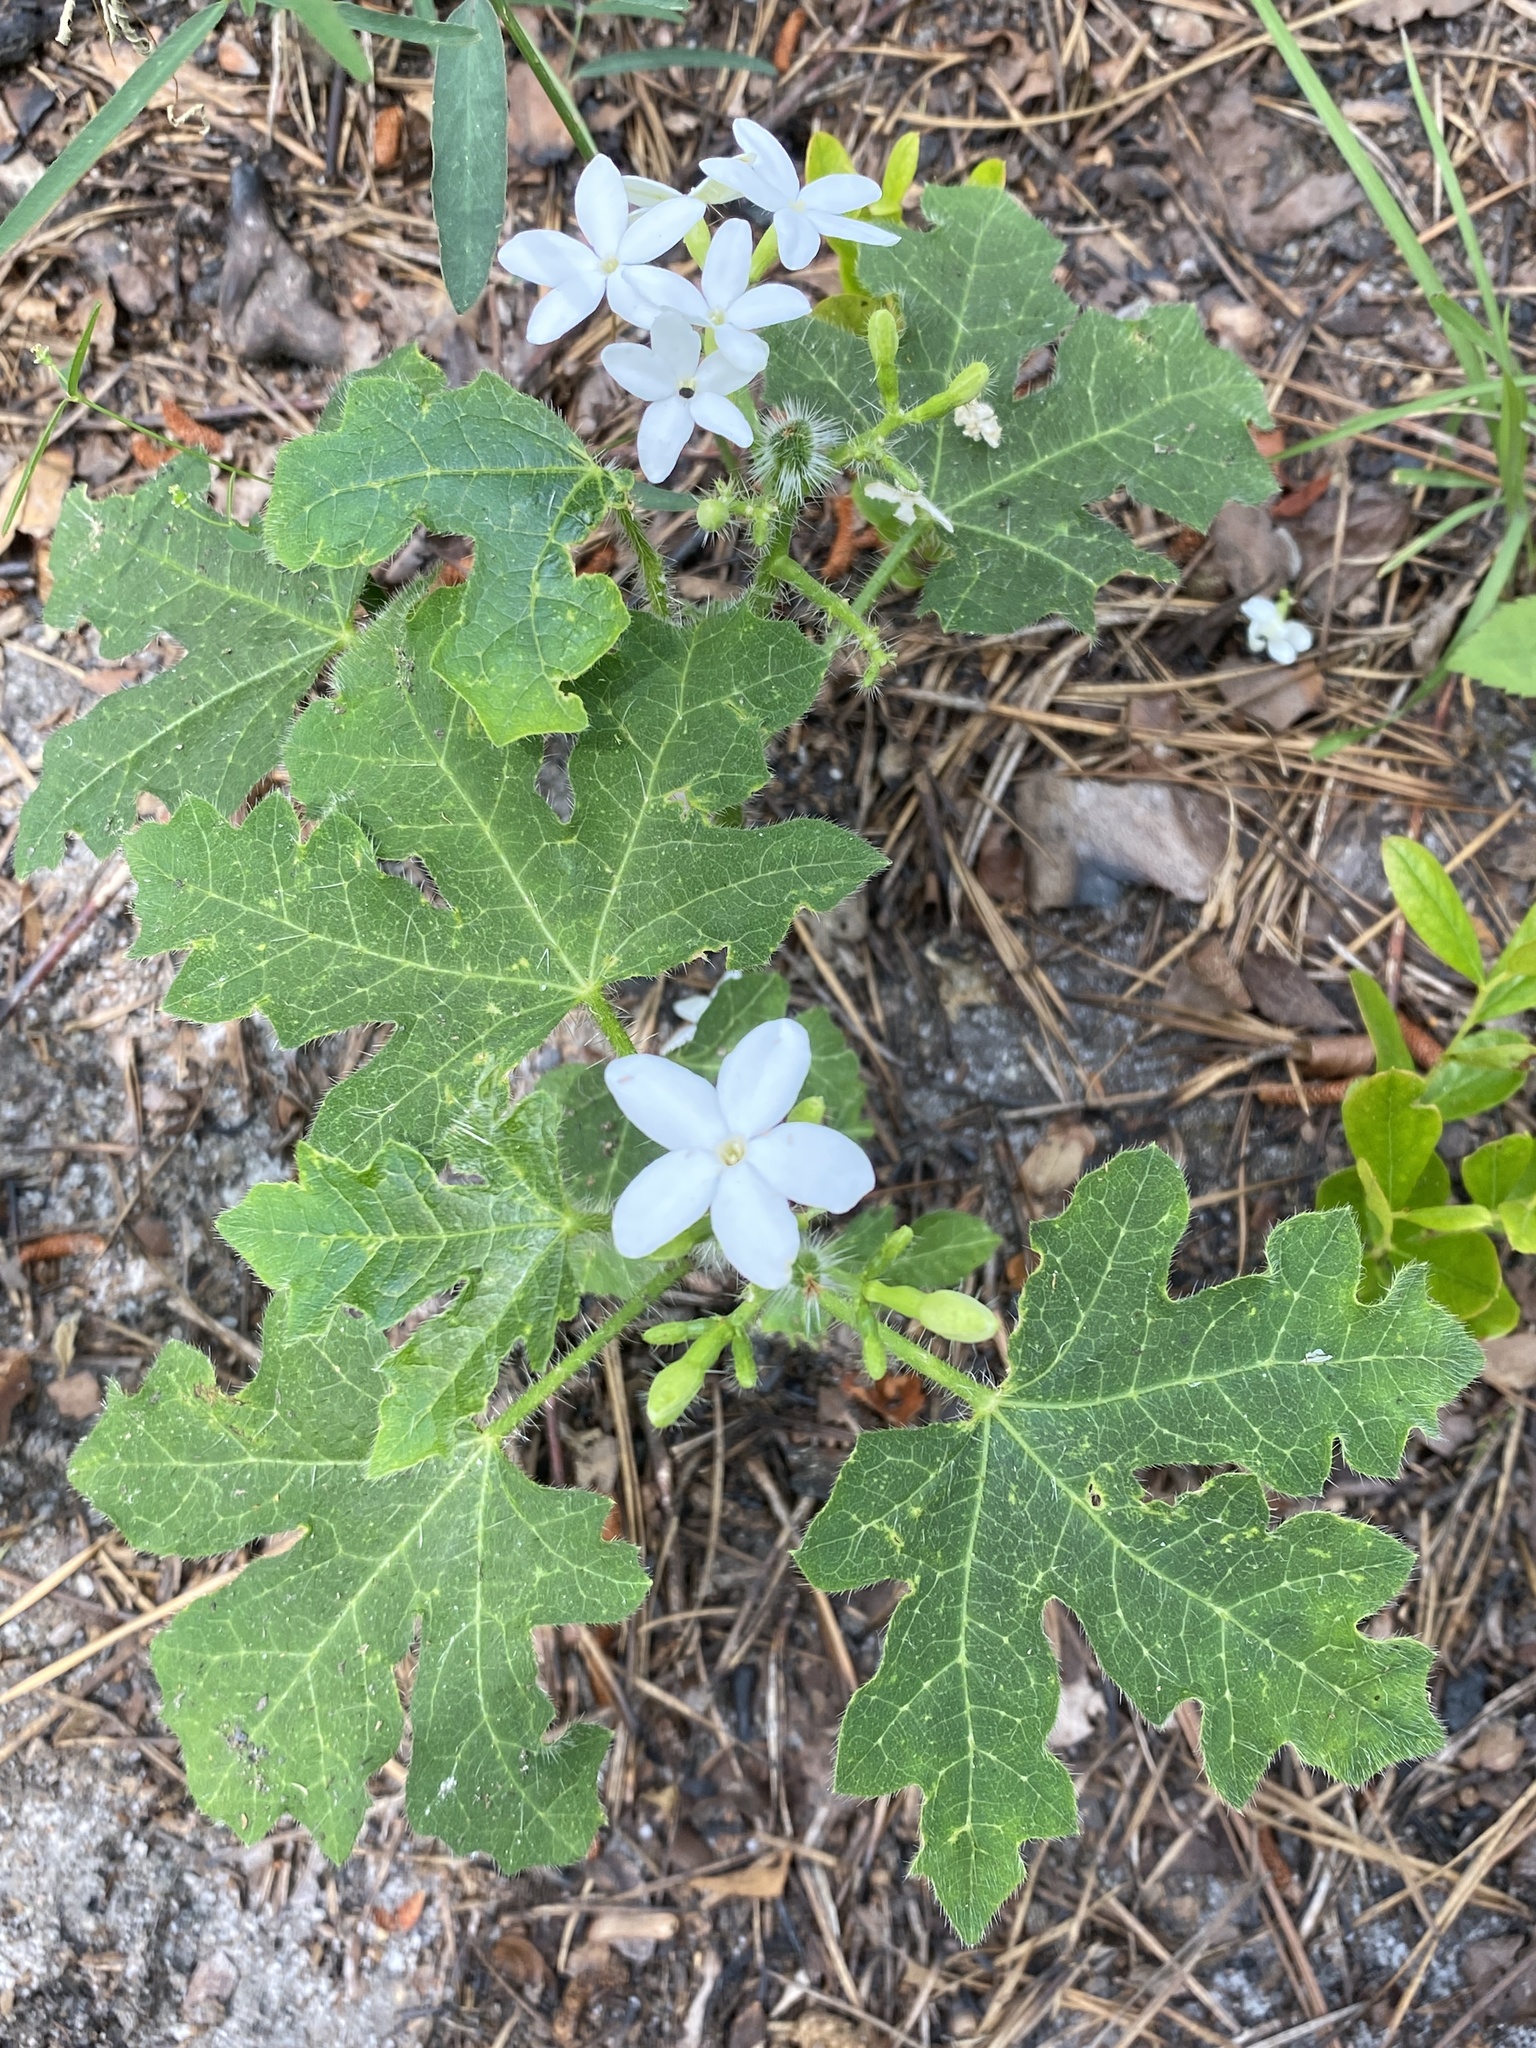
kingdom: Plantae
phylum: Tracheophyta
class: Magnoliopsida
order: Malpighiales
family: Euphorbiaceae
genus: Cnidoscolus
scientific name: Cnidoscolus stimulosus
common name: Bull-nettle
